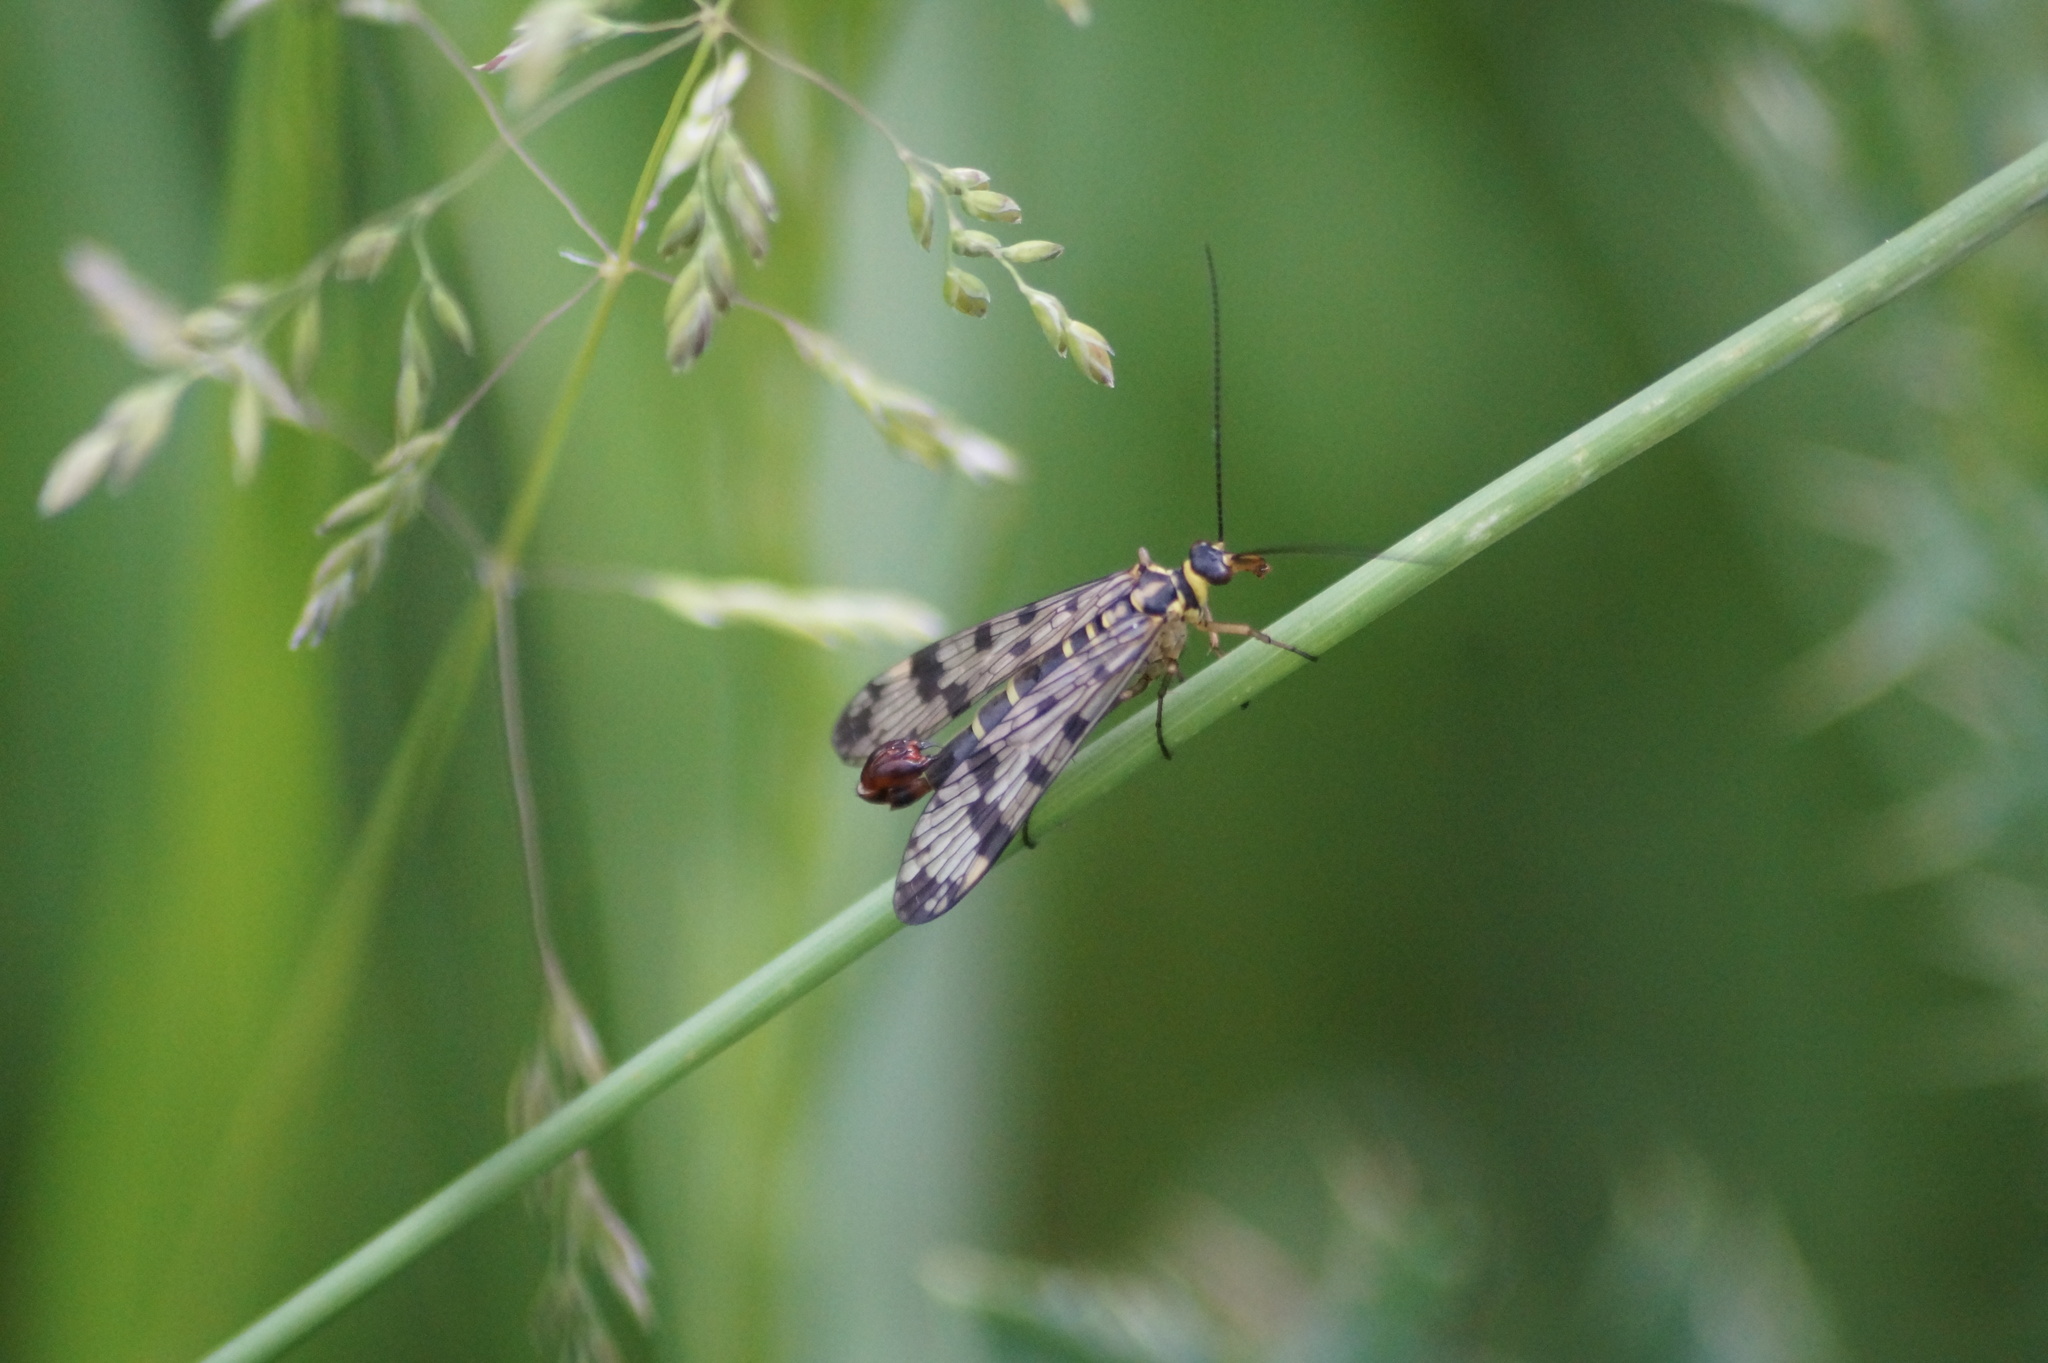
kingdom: Animalia
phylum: Arthropoda
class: Insecta
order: Mecoptera
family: Panorpidae
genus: Panorpa
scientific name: Panorpa communis
